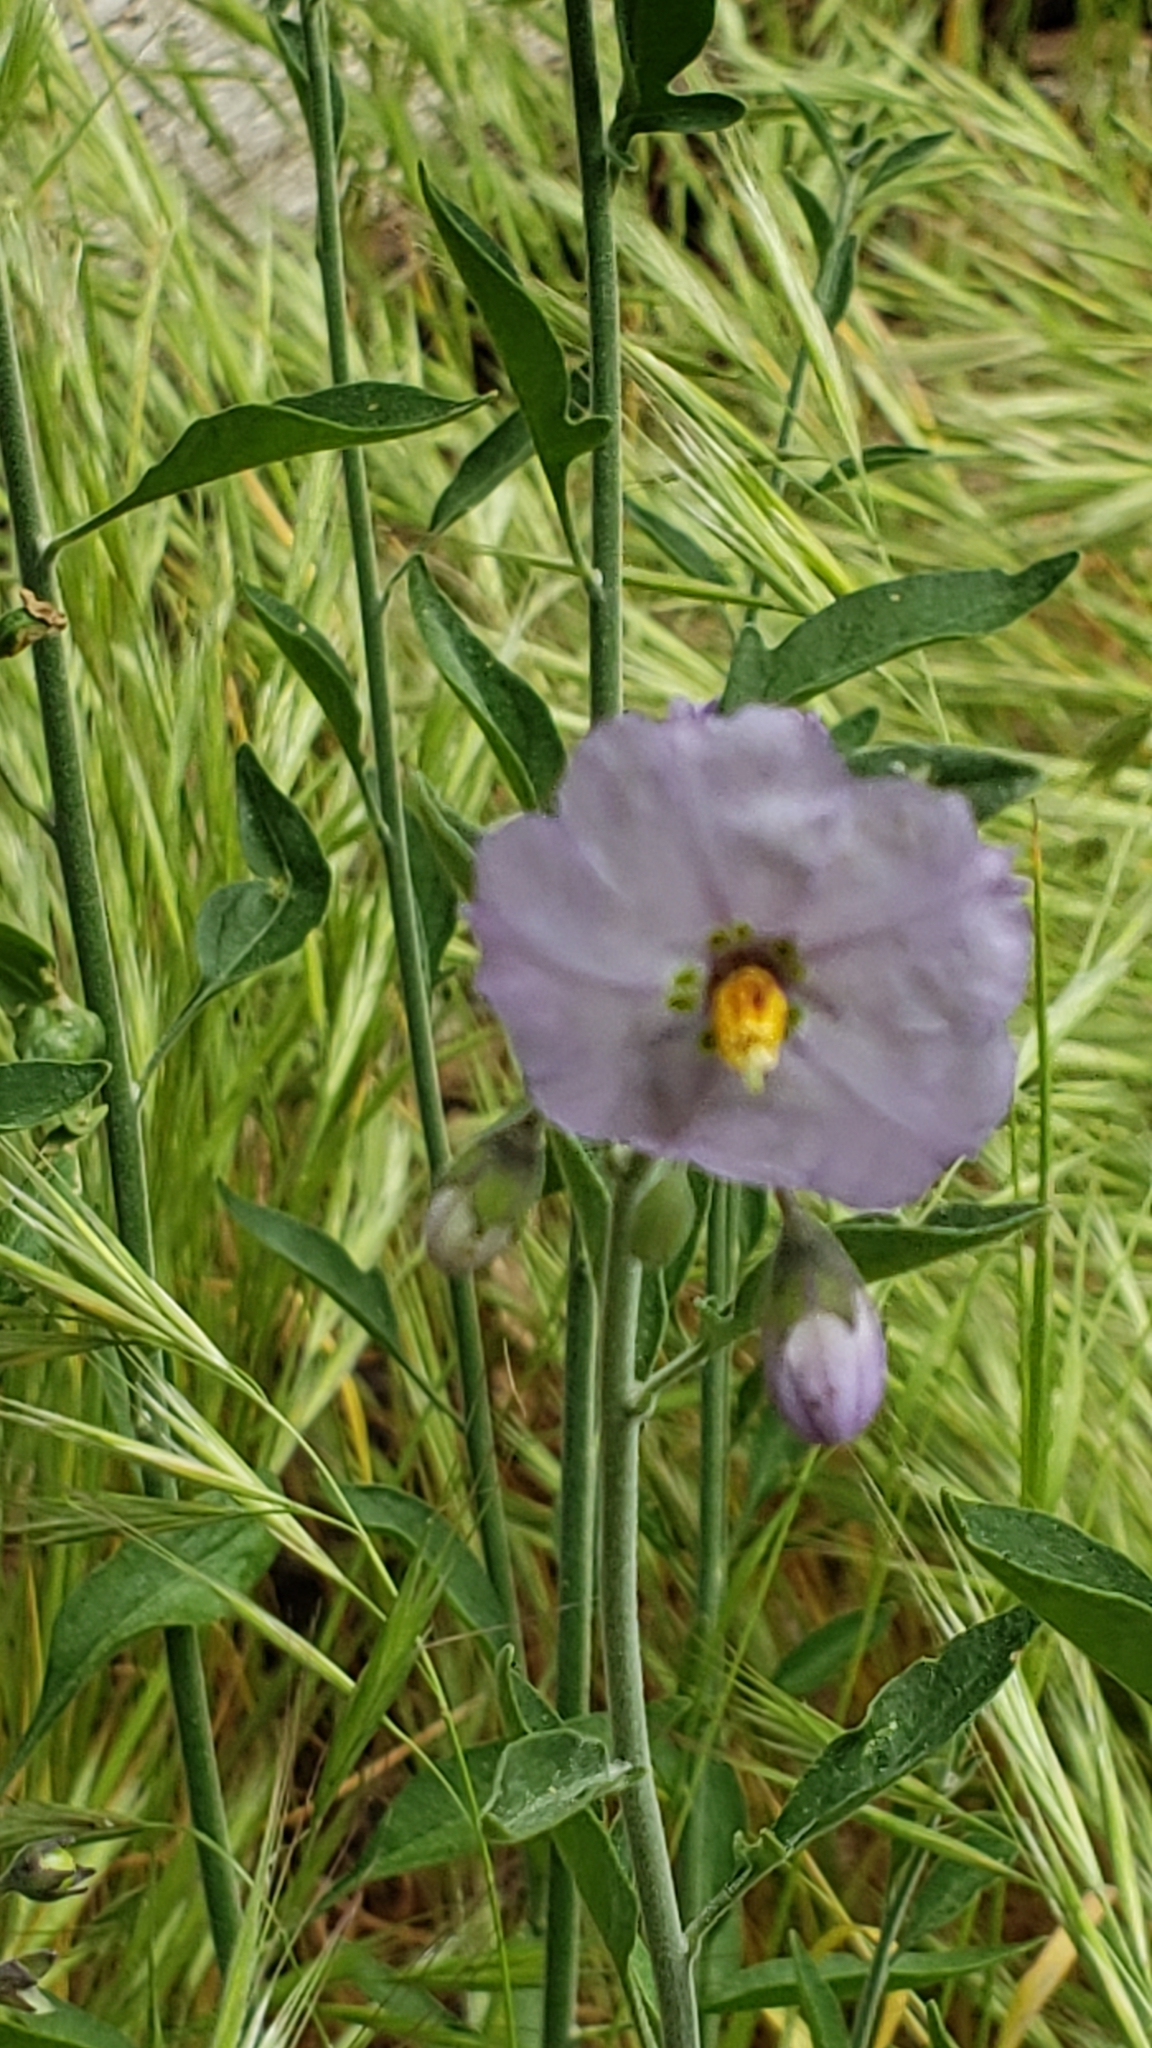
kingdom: Plantae
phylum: Tracheophyta
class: Magnoliopsida
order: Solanales
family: Solanaceae
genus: Solanum
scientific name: Solanum umbelliferum
